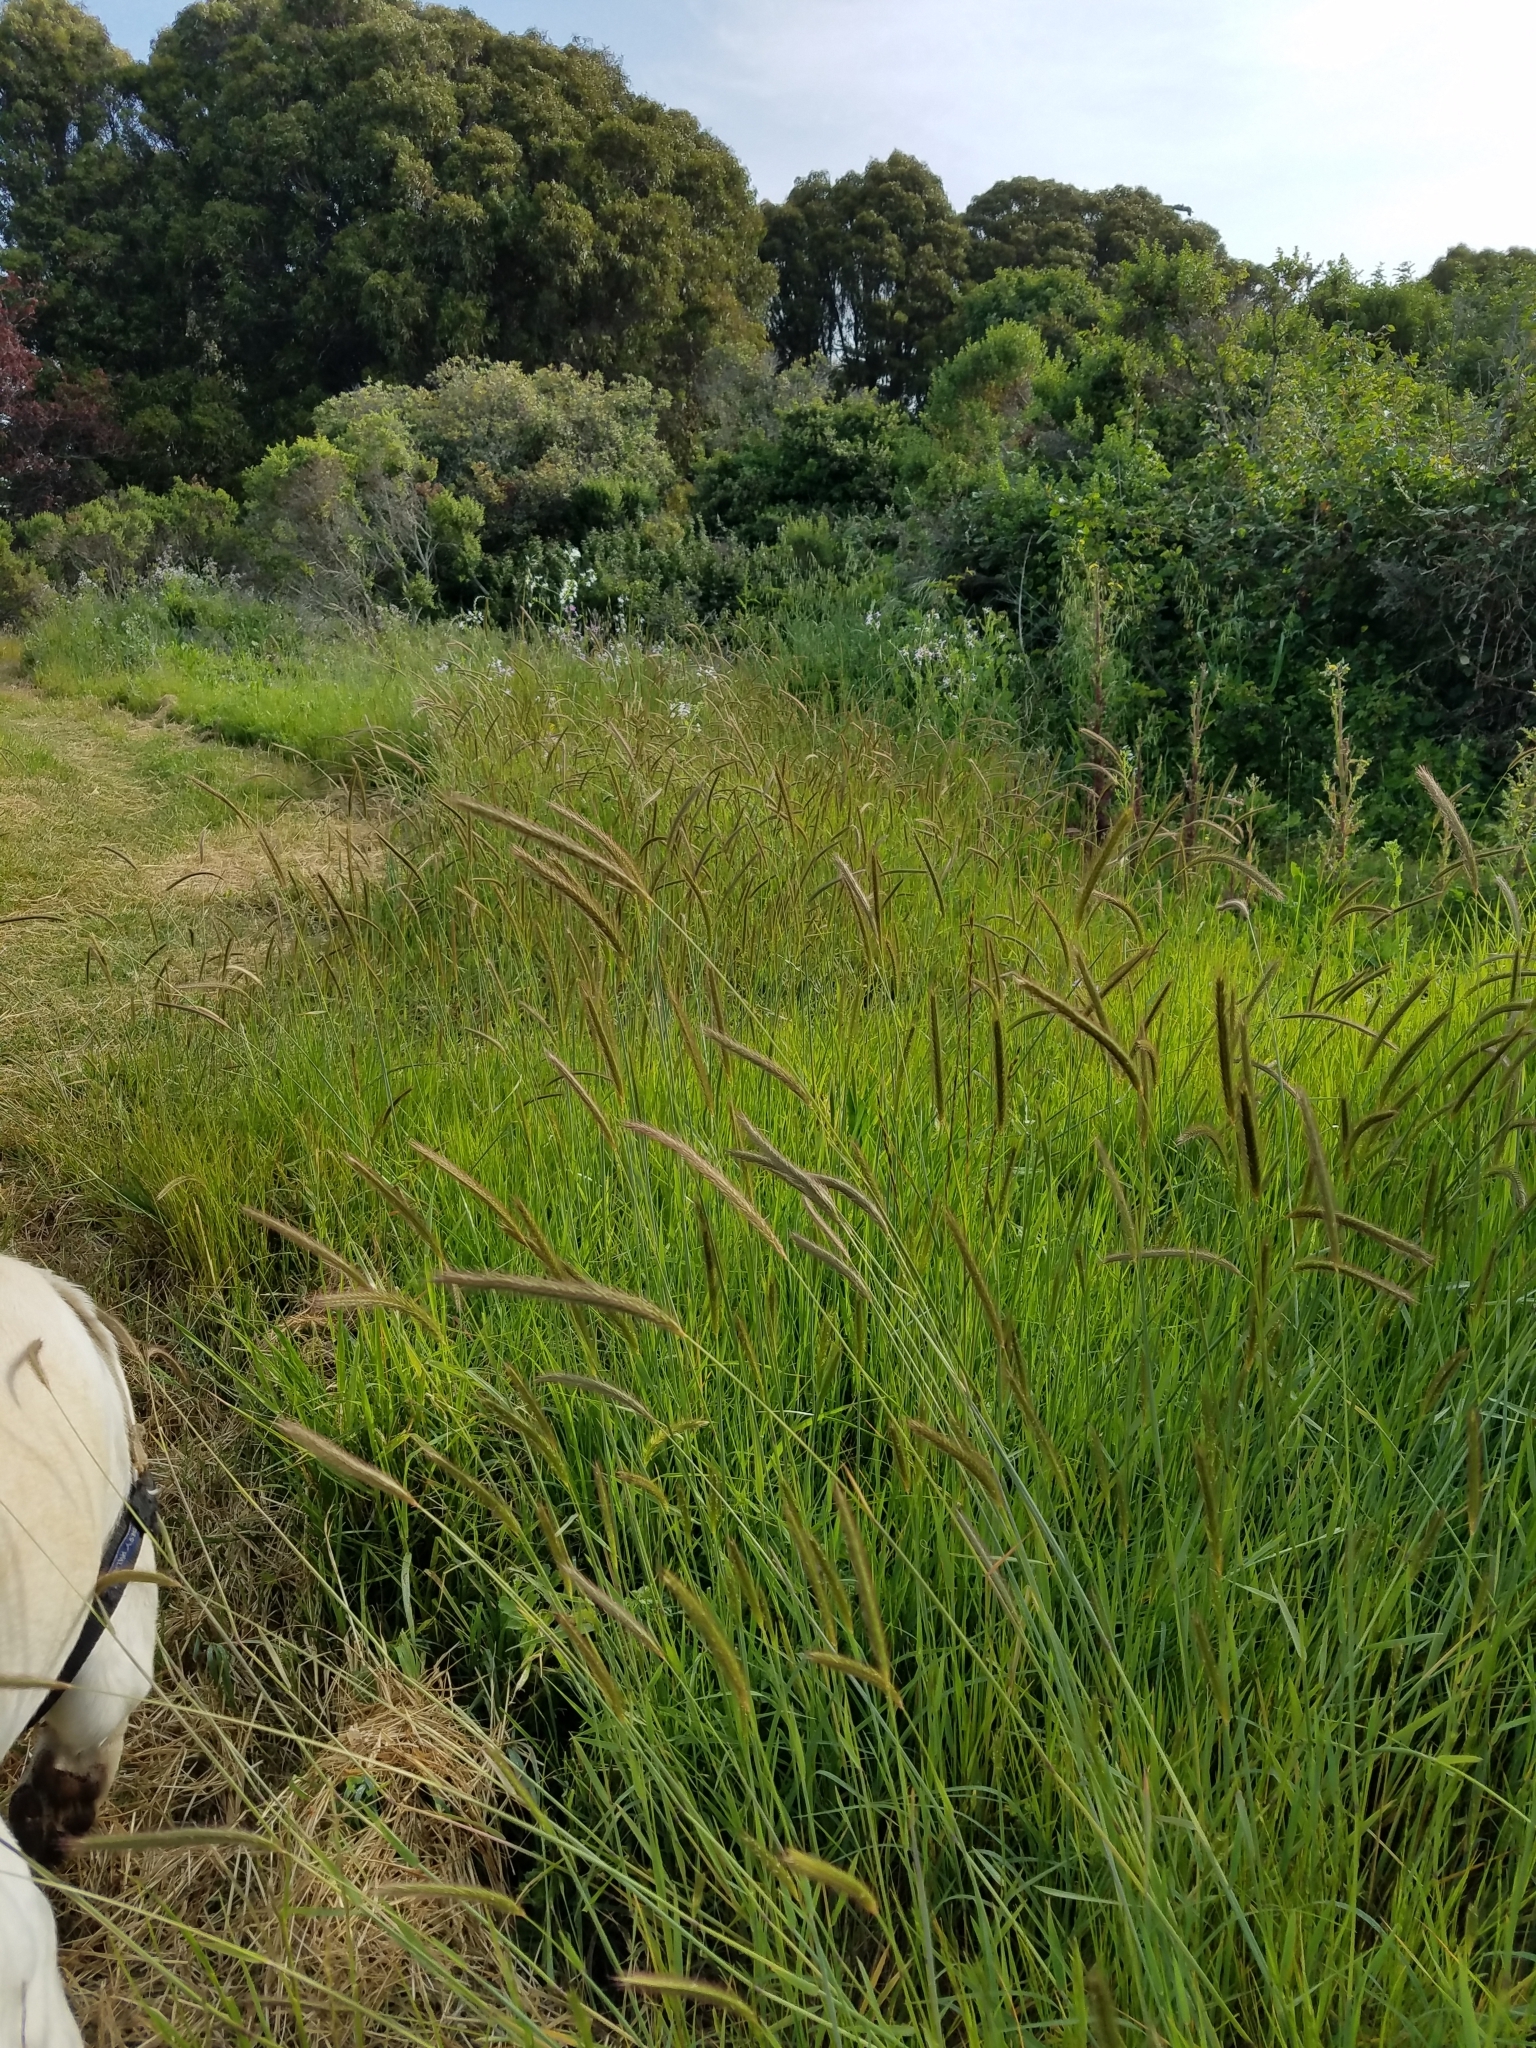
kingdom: Plantae
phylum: Tracheophyta
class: Liliopsida
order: Poales
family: Poaceae
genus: Hordeum
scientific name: Hordeum brachyantherum
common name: Meadow barley
